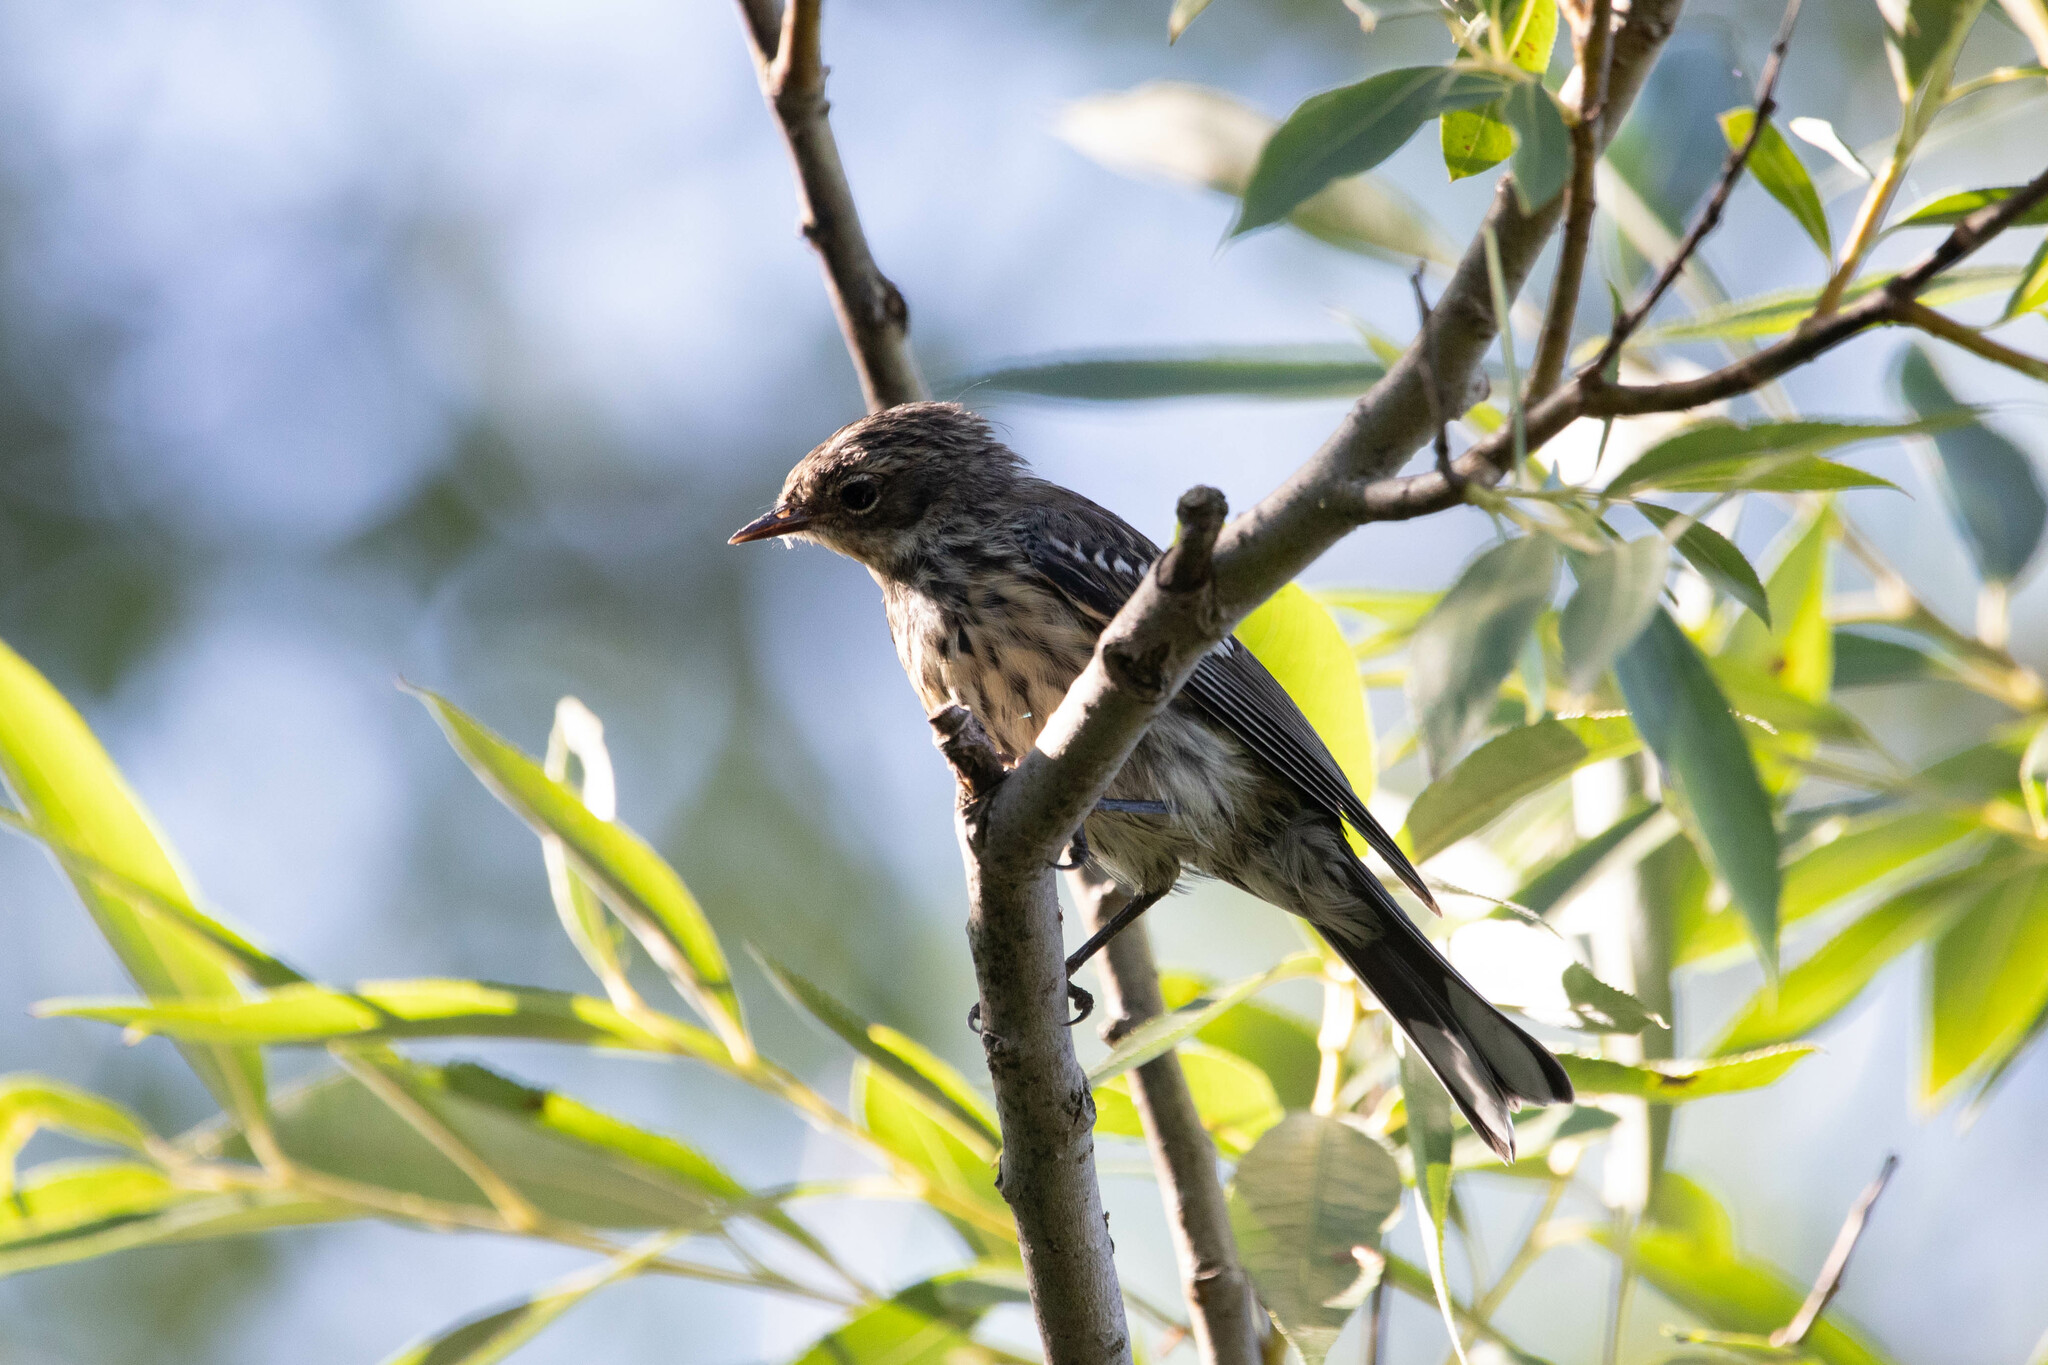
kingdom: Animalia
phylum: Chordata
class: Aves
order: Passeriformes
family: Parulidae
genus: Setophaga
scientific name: Setophaga coronata
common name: Myrtle warbler
